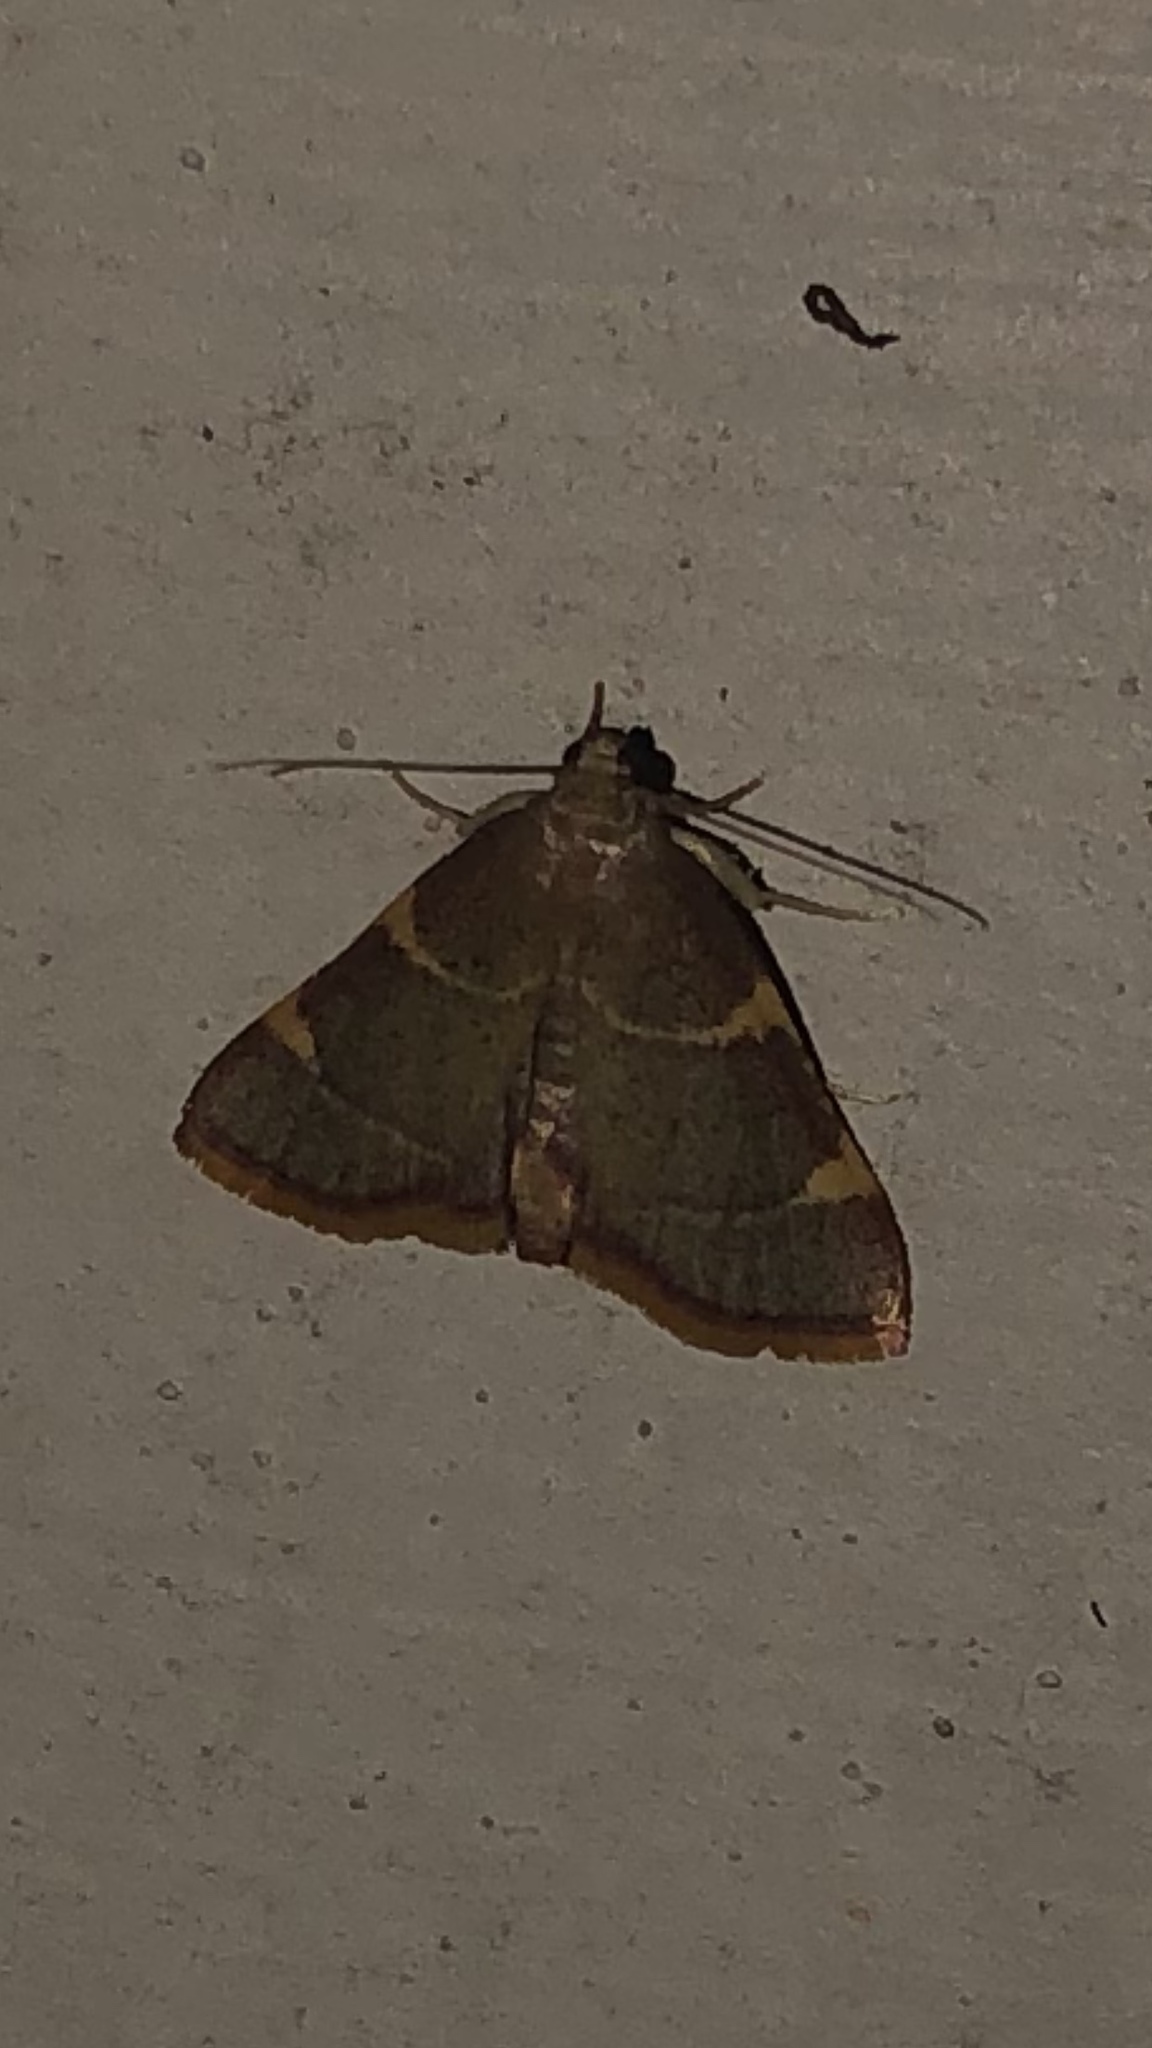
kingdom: Animalia
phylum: Arthropoda
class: Insecta
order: Lepidoptera
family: Pyralidae
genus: Hypsopygia
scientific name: Hypsopygia olinalis
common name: Yellow-fringed dolichomia moth
